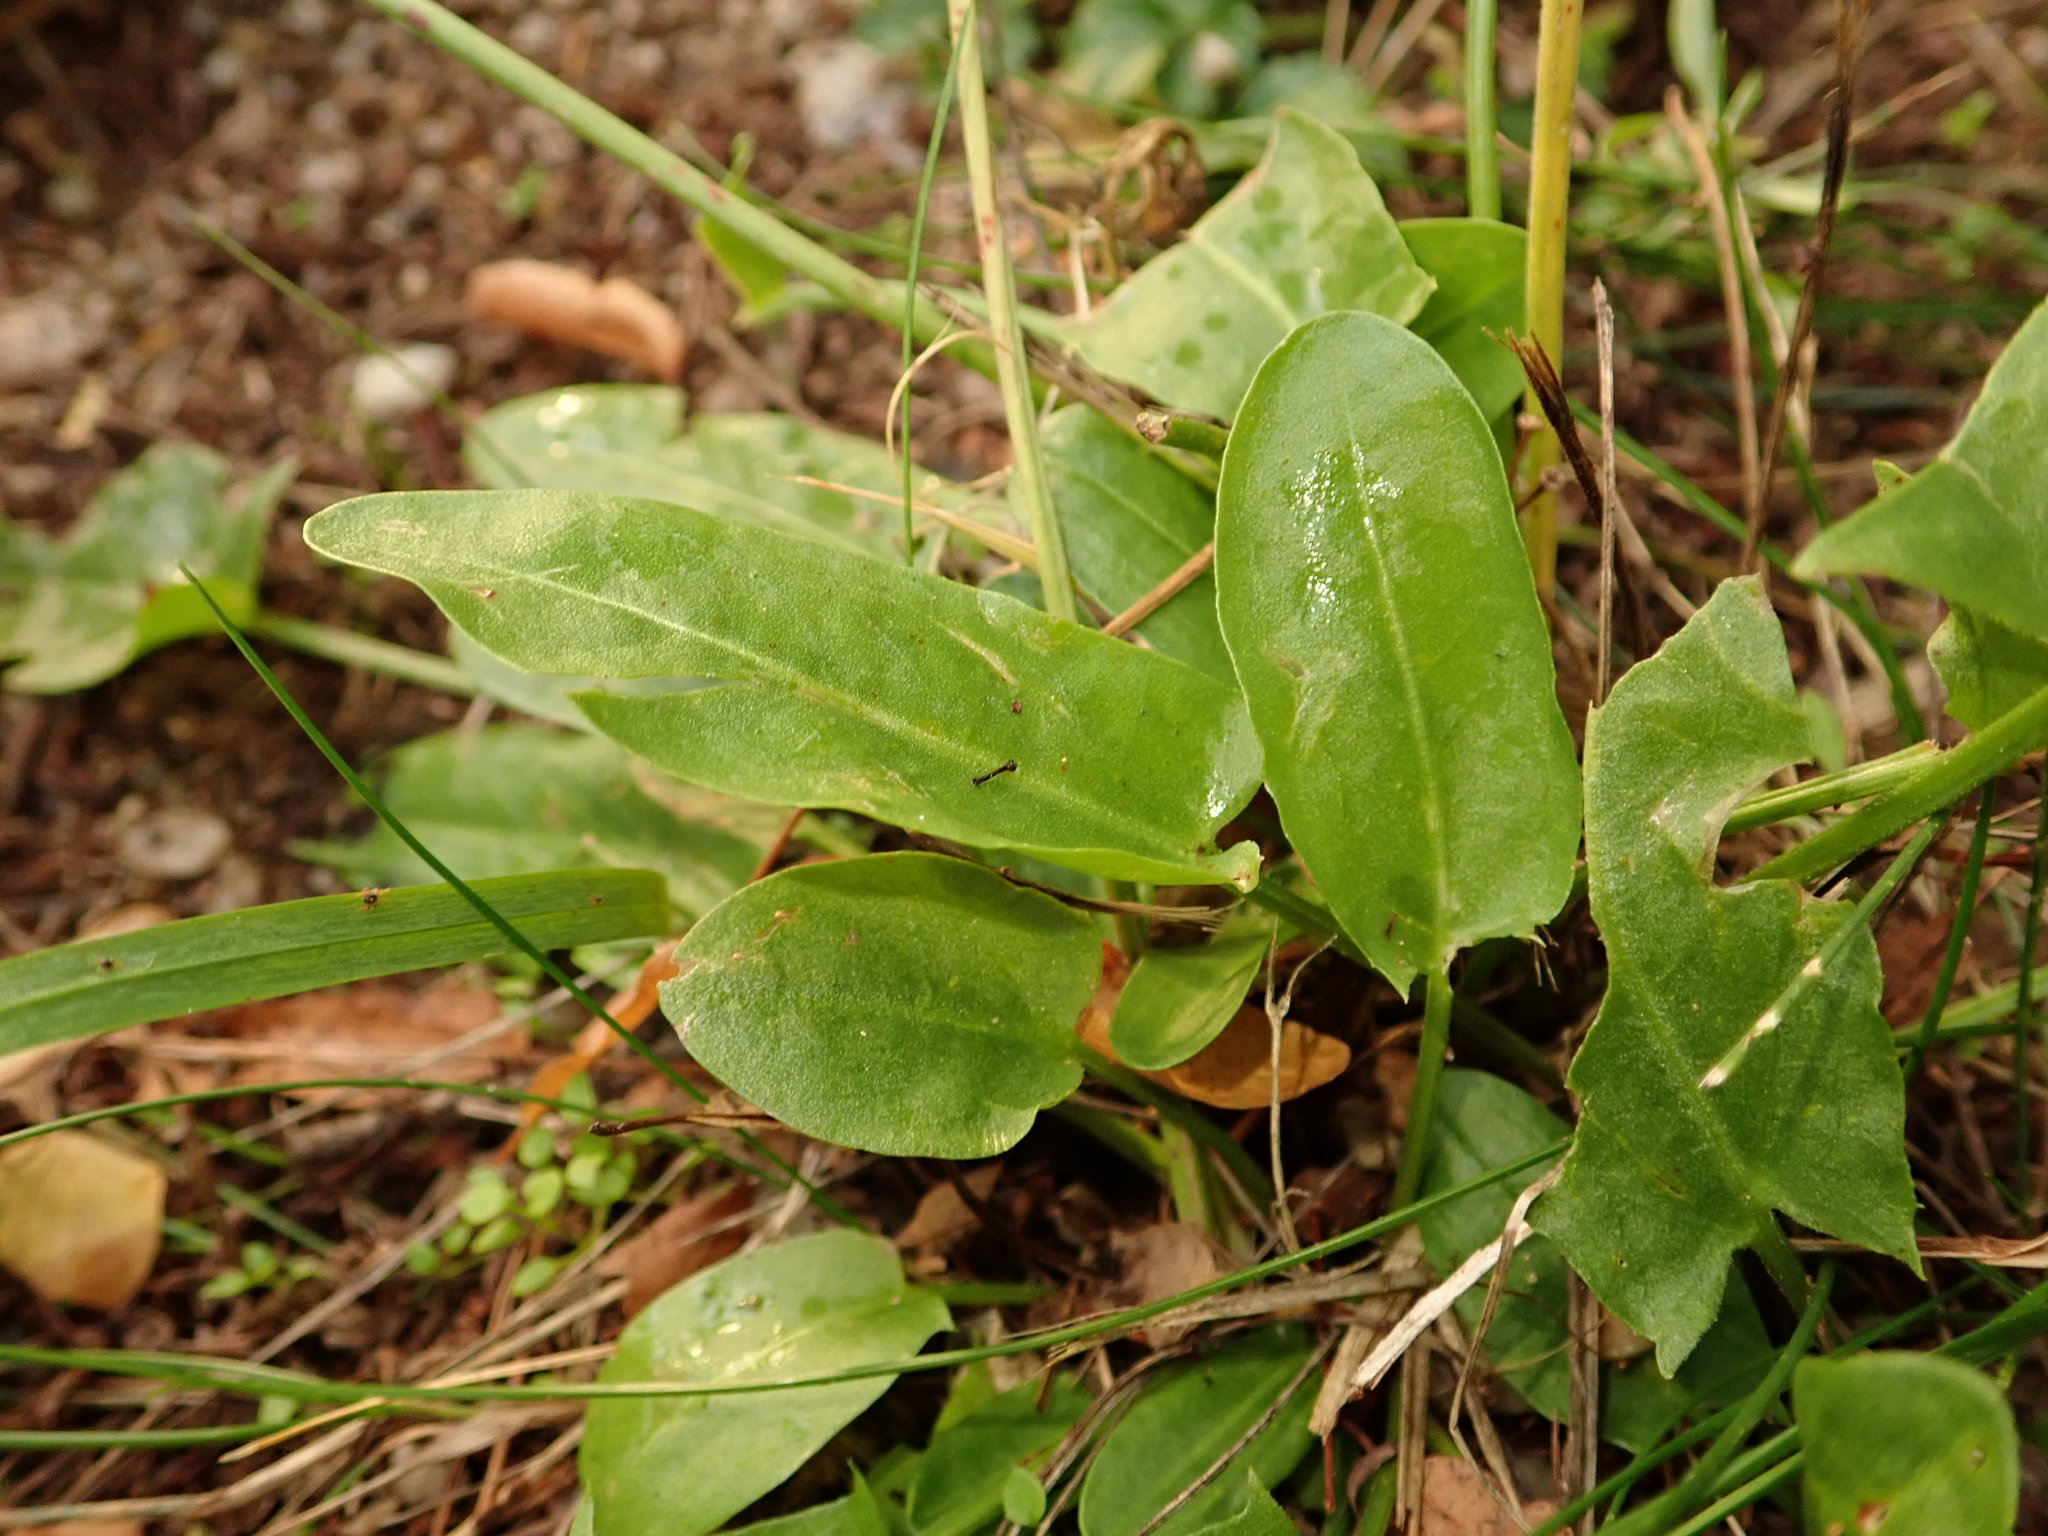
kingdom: Plantae
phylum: Tracheophyta
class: Magnoliopsida
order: Caryophyllales
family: Polygonaceae
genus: Rumex
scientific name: Rumex acetosa
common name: Garden sorrel
